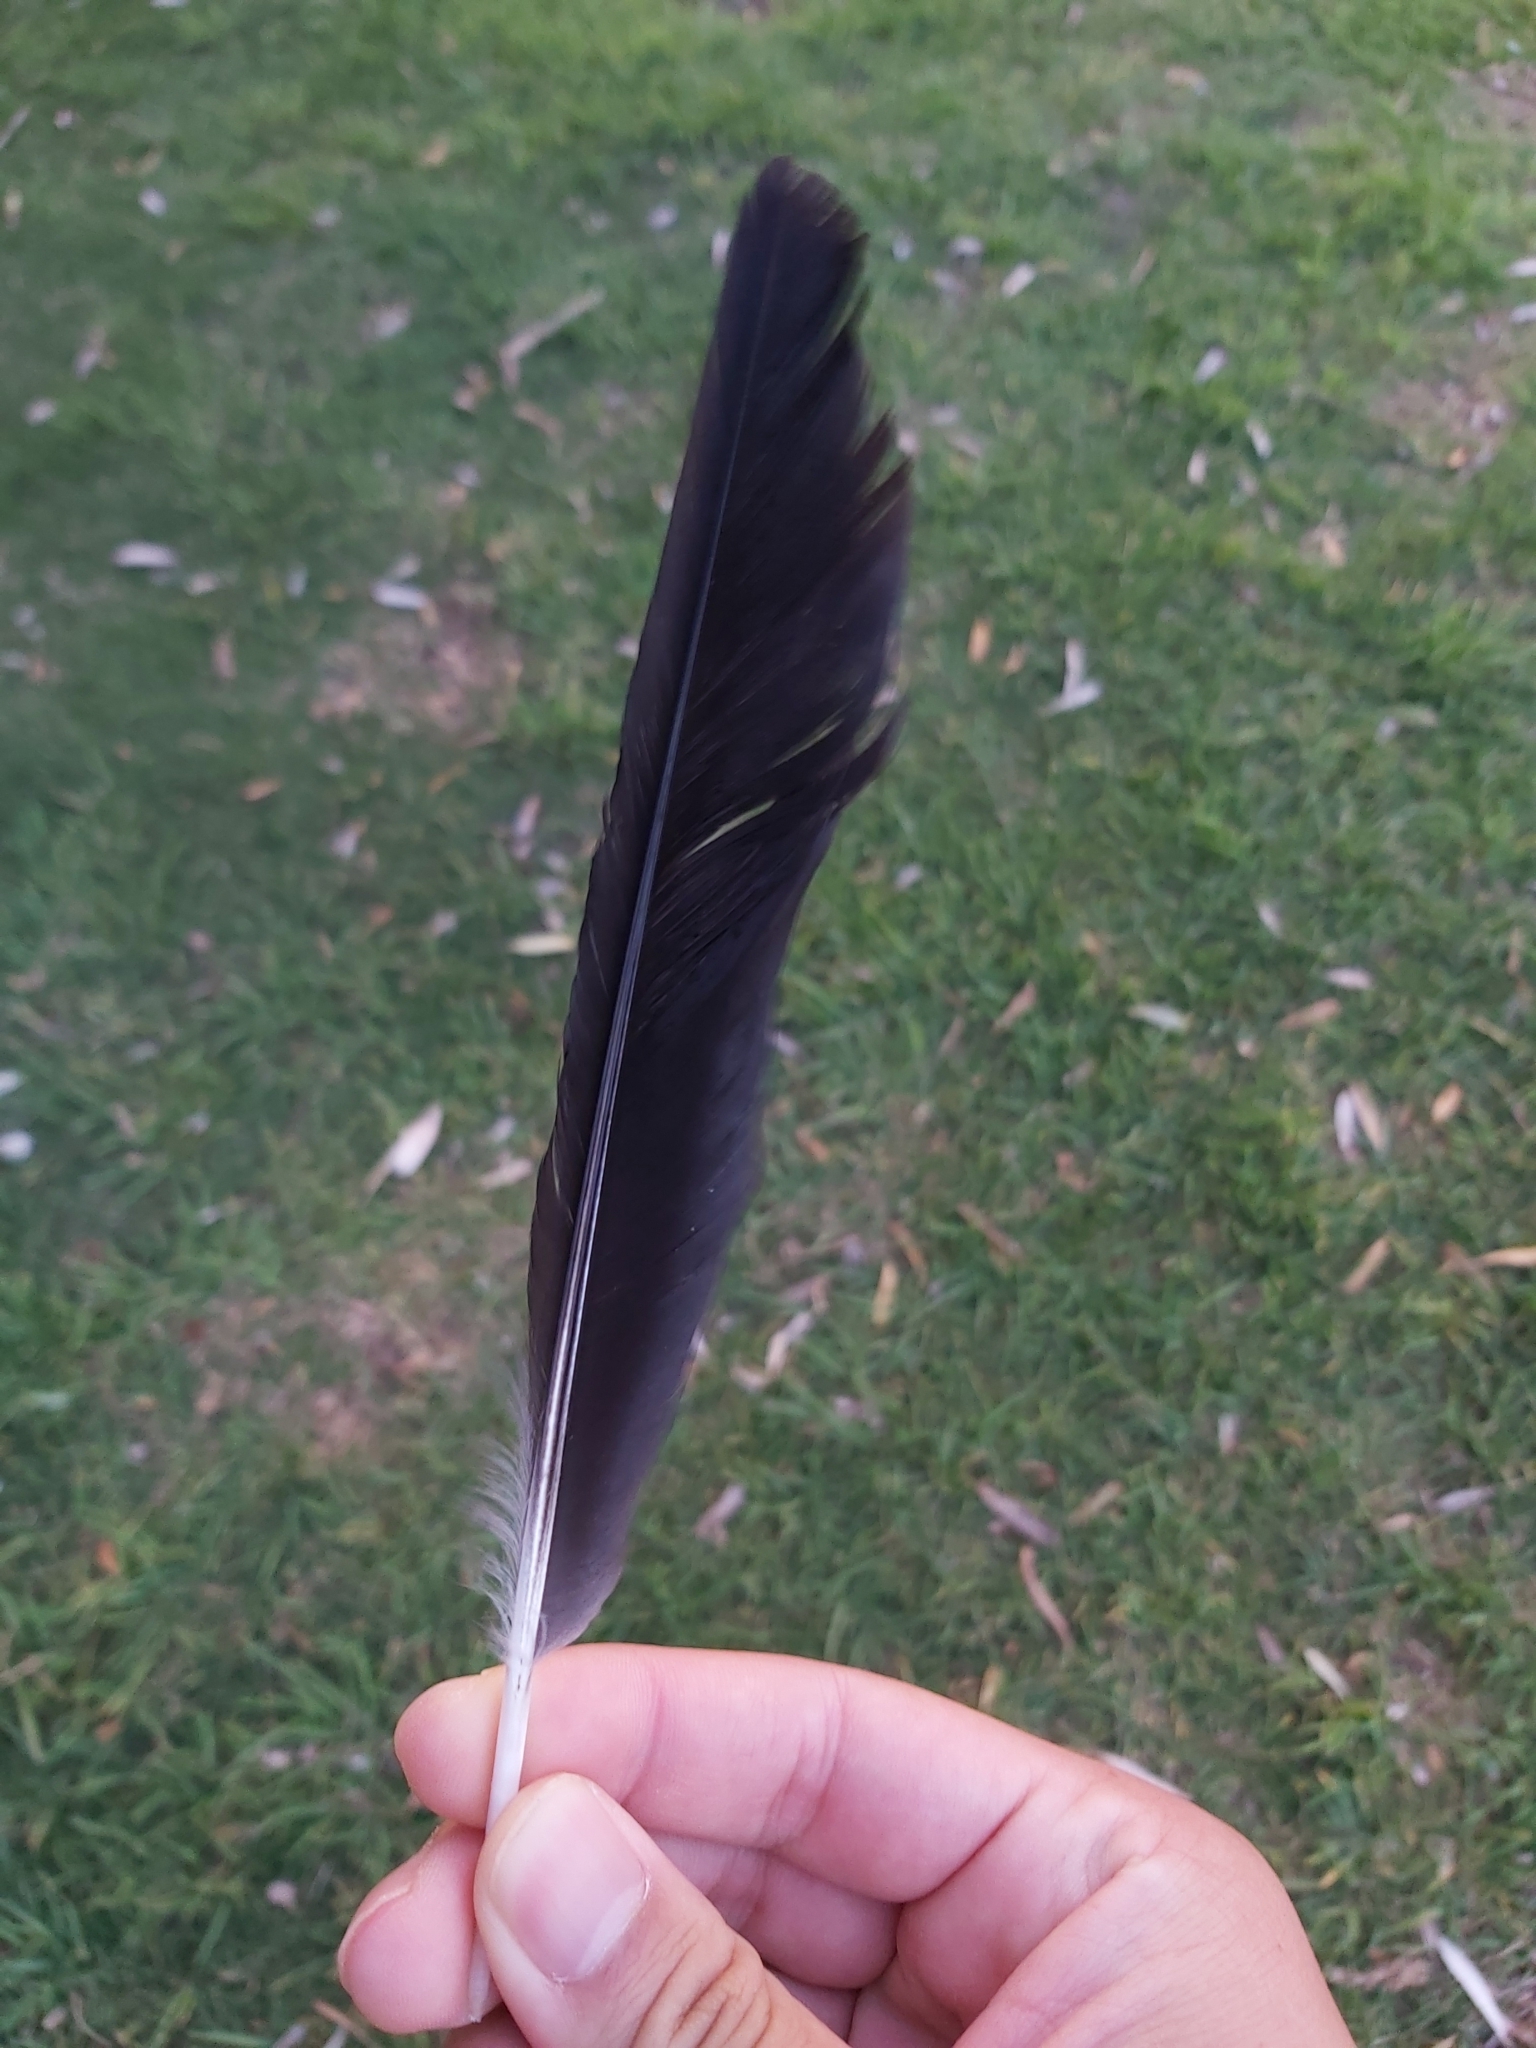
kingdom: Animalia
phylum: Chordata
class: Aves
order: Passeriformes
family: Cracticidae
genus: Gymnorhina
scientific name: Gymnorhina tibicen
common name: Australian magpie
